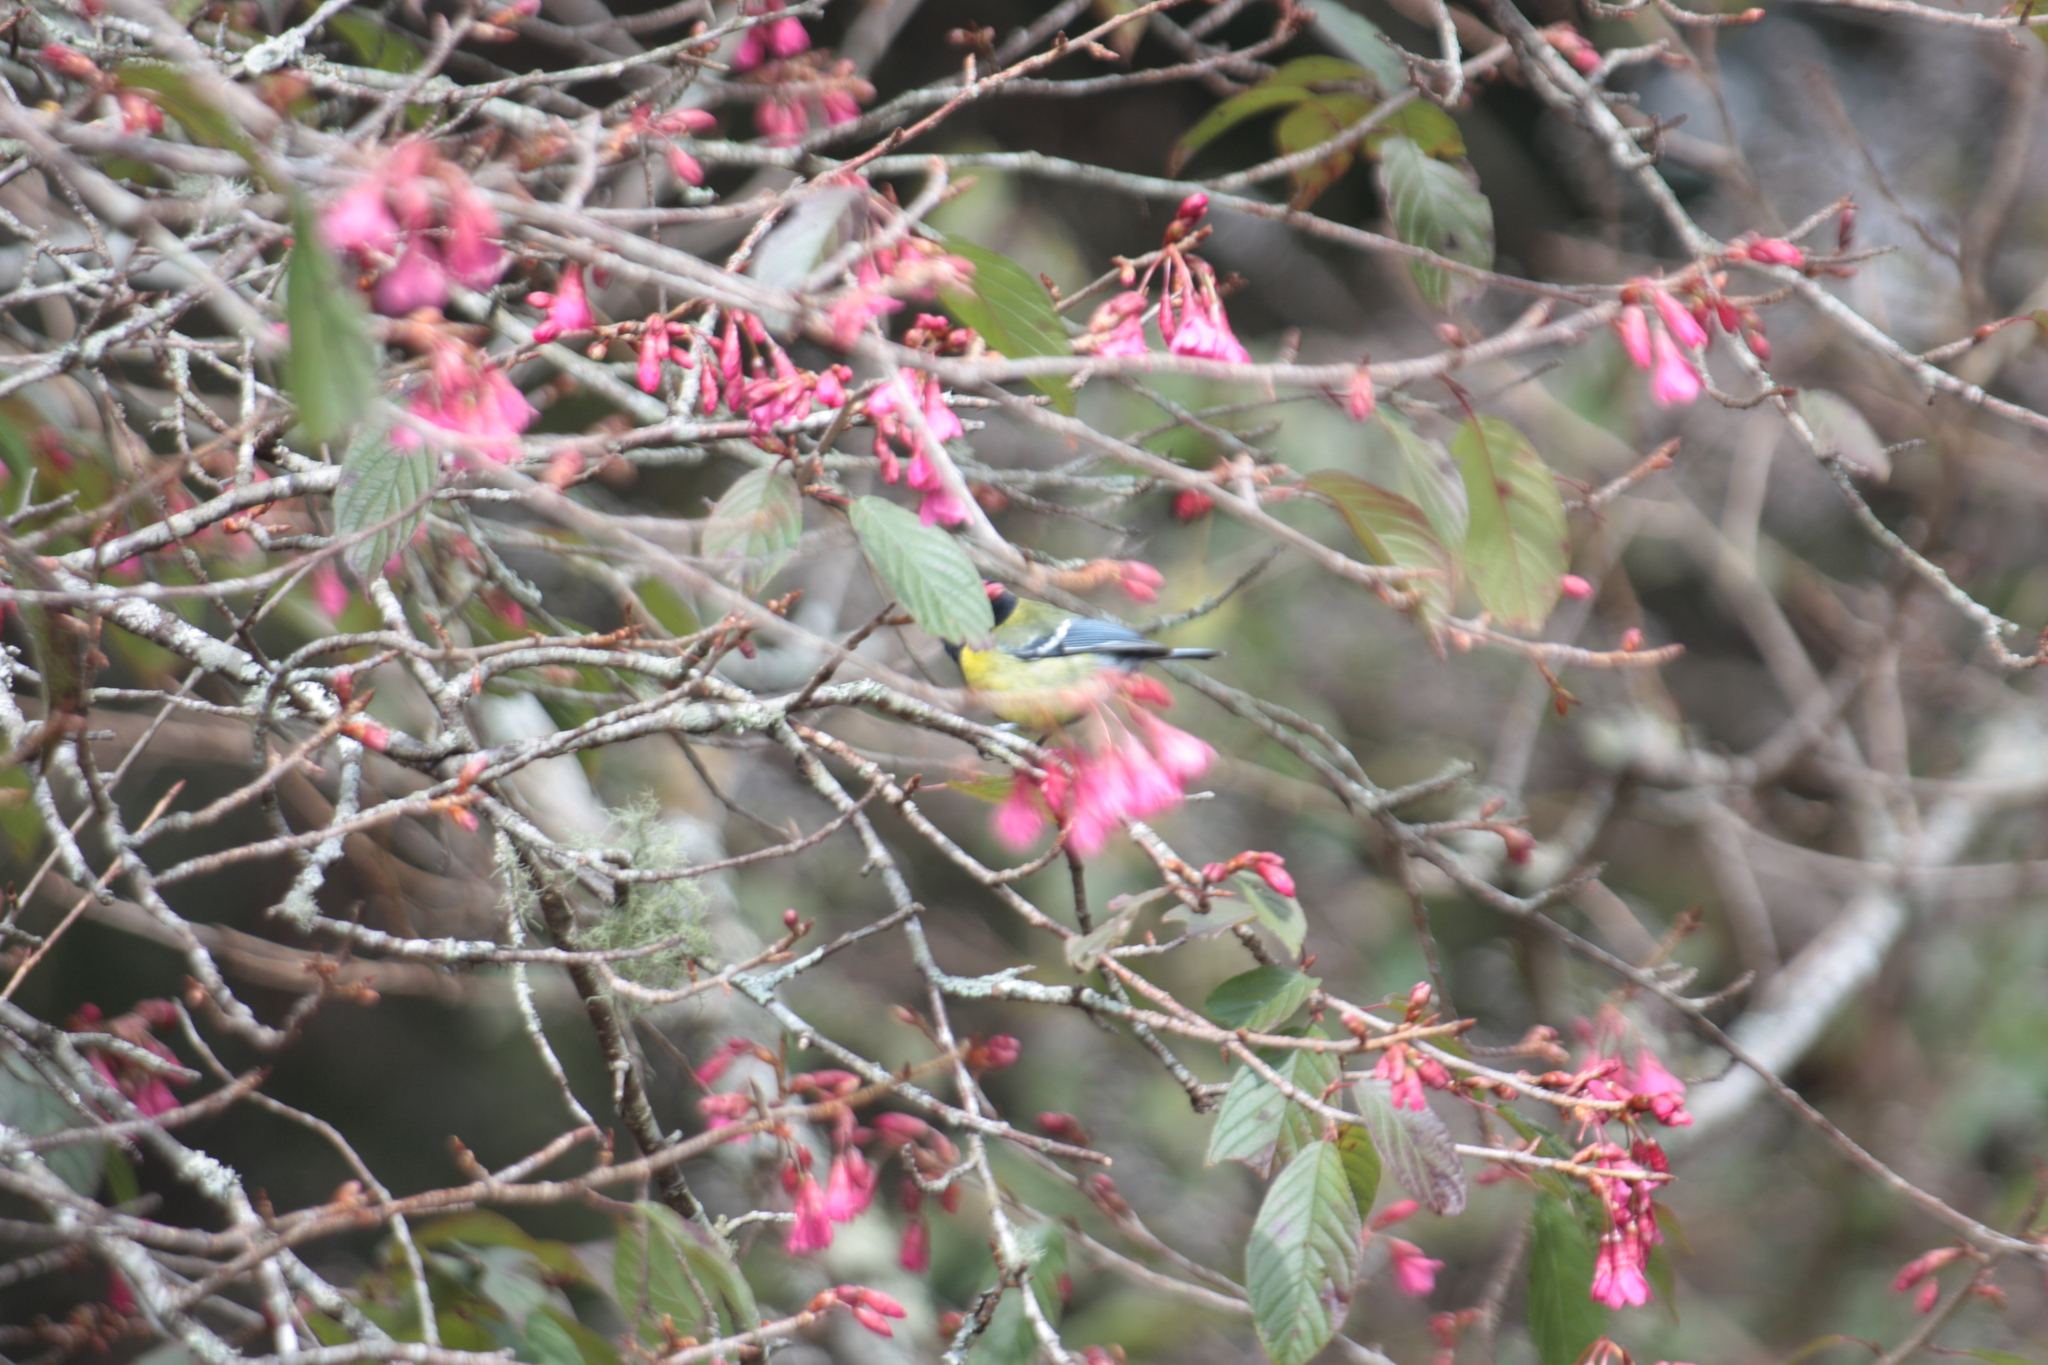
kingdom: Animalia
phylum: Chordata
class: Aves
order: Passeriformes
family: Paridae
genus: Parus
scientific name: Parus monticolus
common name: Green-backed tit
